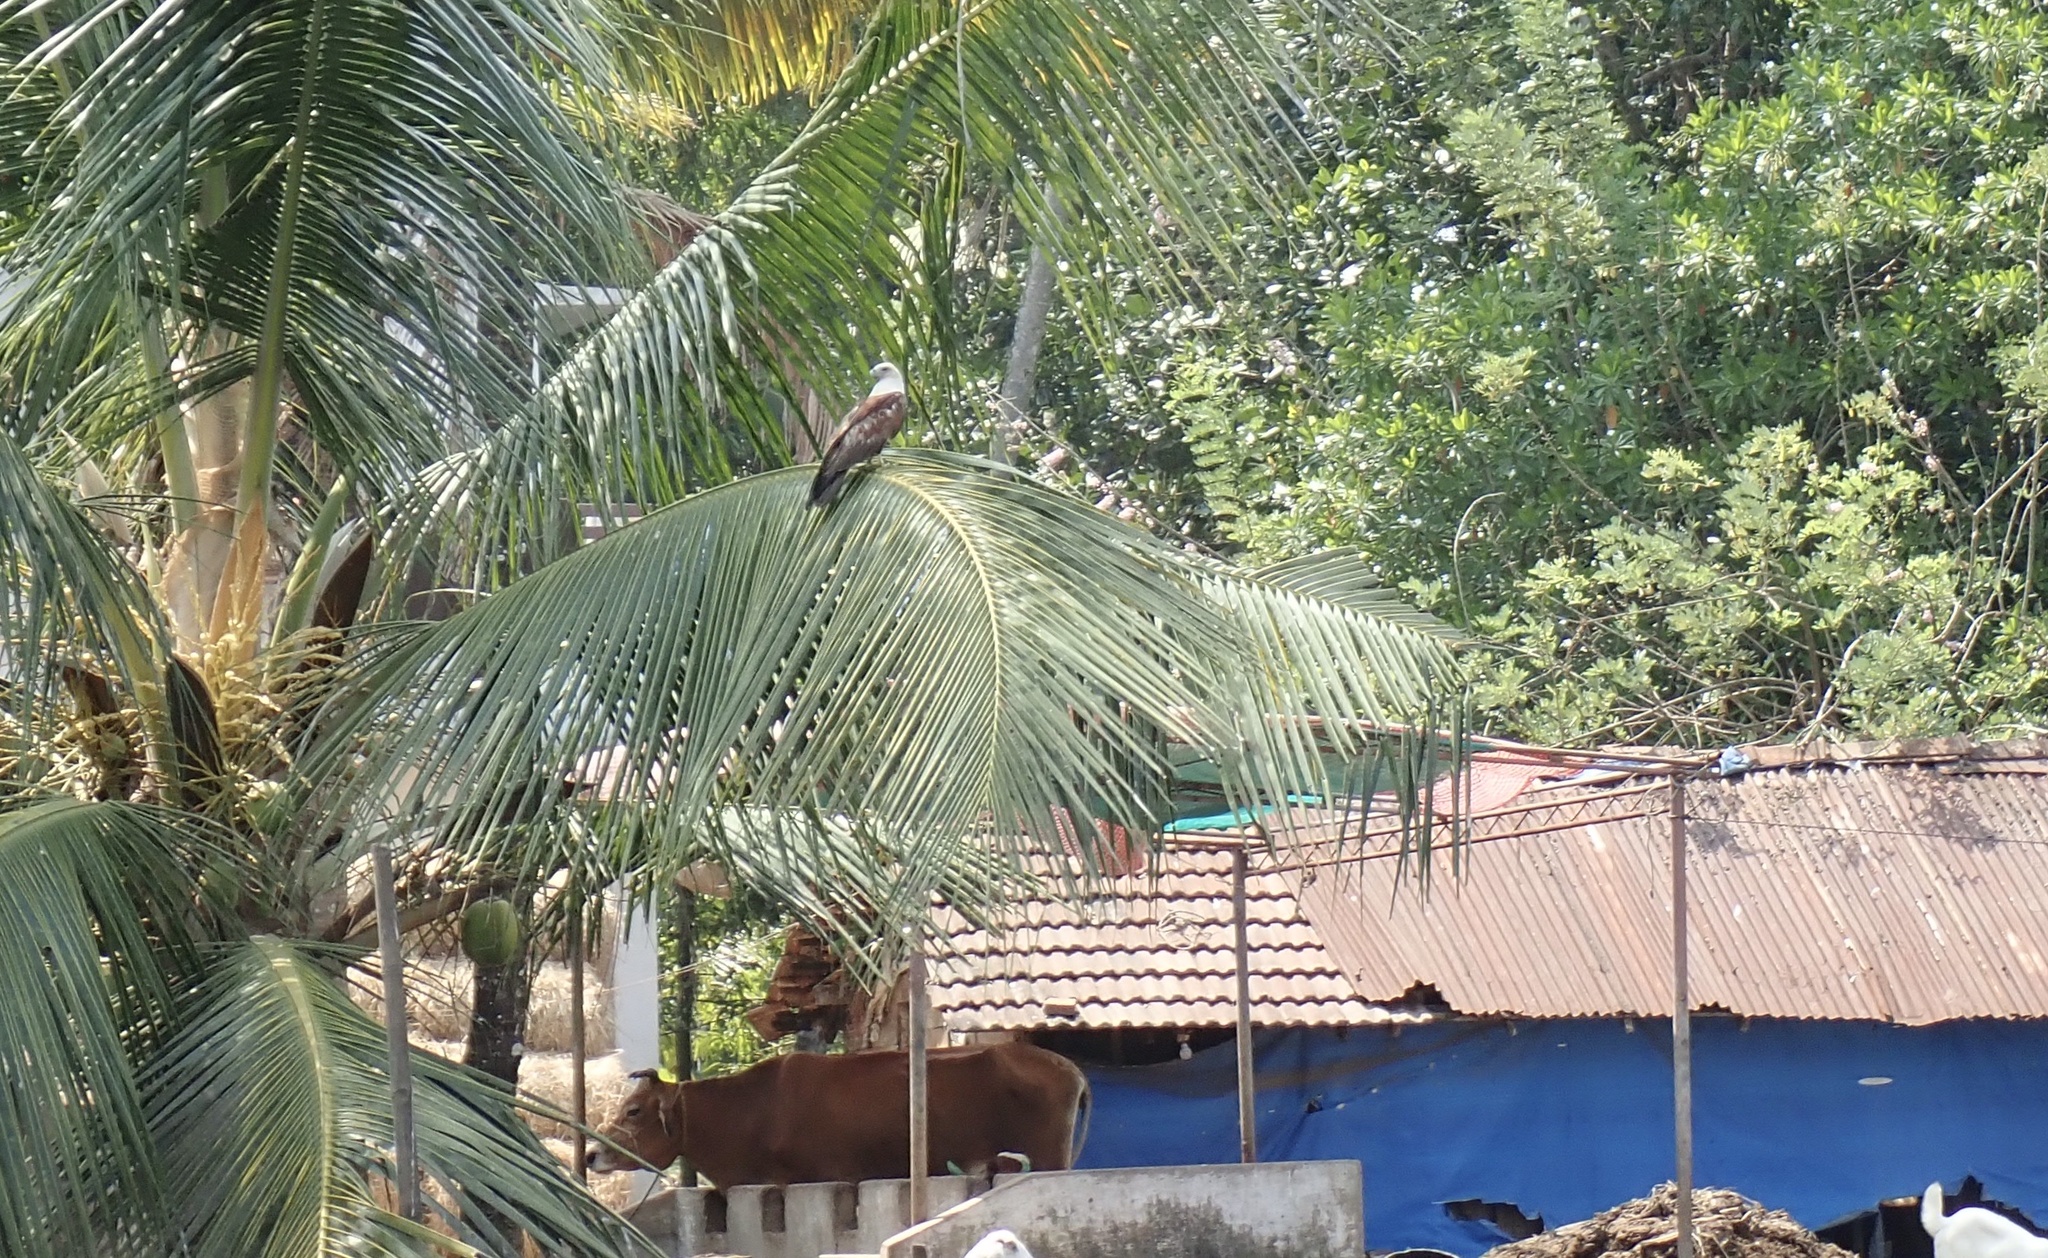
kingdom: Animalia
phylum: Chordata
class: Aves
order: Accipitriformes
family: Accipitridae
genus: Haliastur
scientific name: Haliastur indus
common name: Brahminy kite
